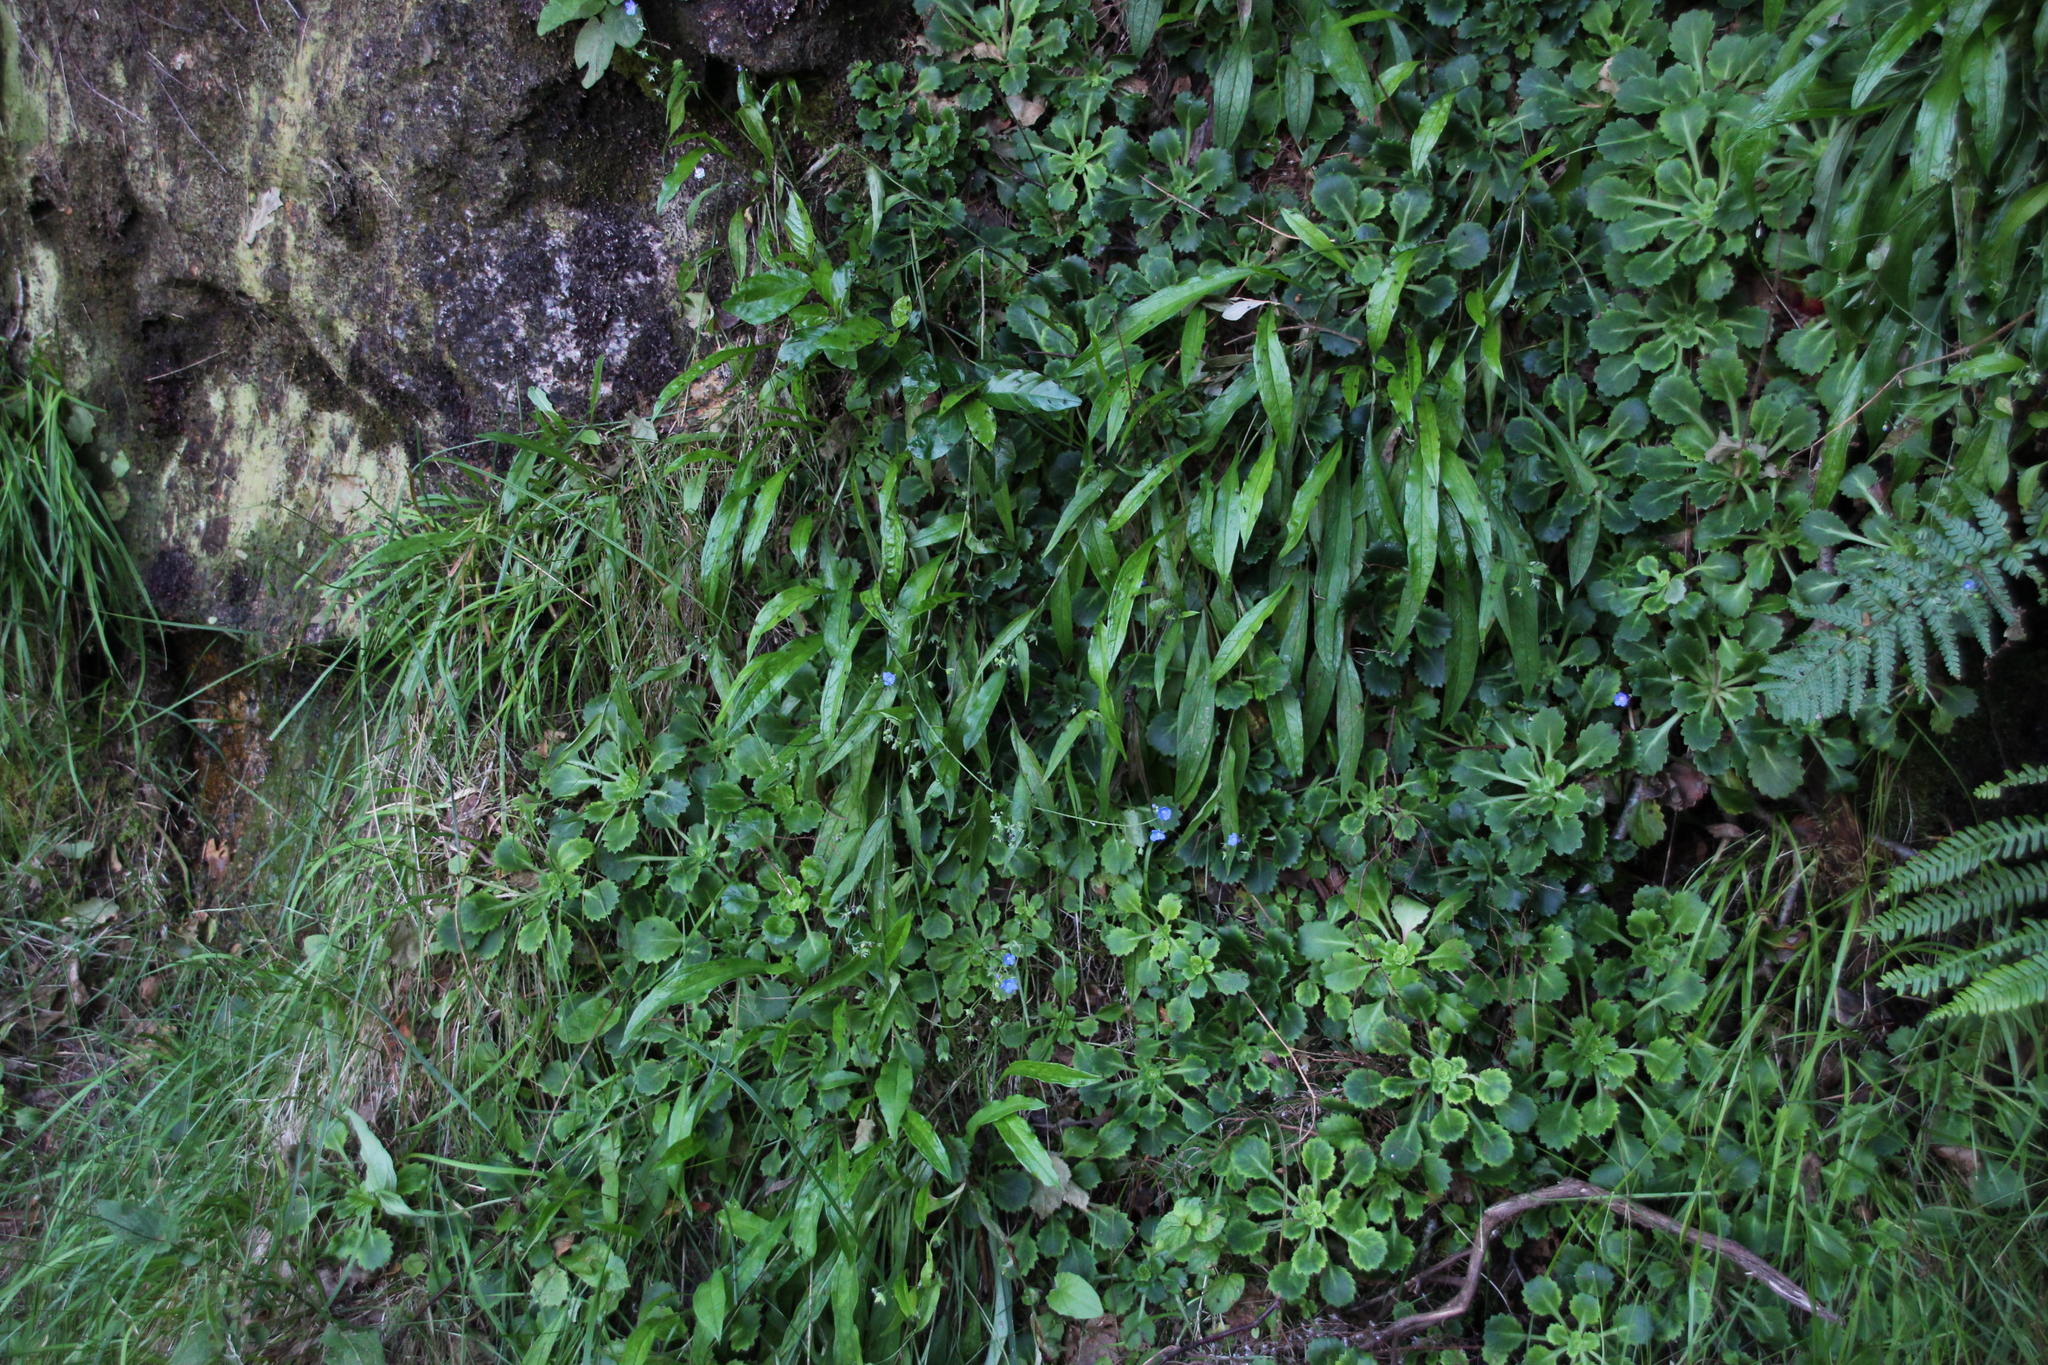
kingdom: Plantae
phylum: Tracheophyta
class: Magnoliopsida
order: Boraginales
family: Boraginaceae
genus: Omphalodes
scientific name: Omphalodes nitida
